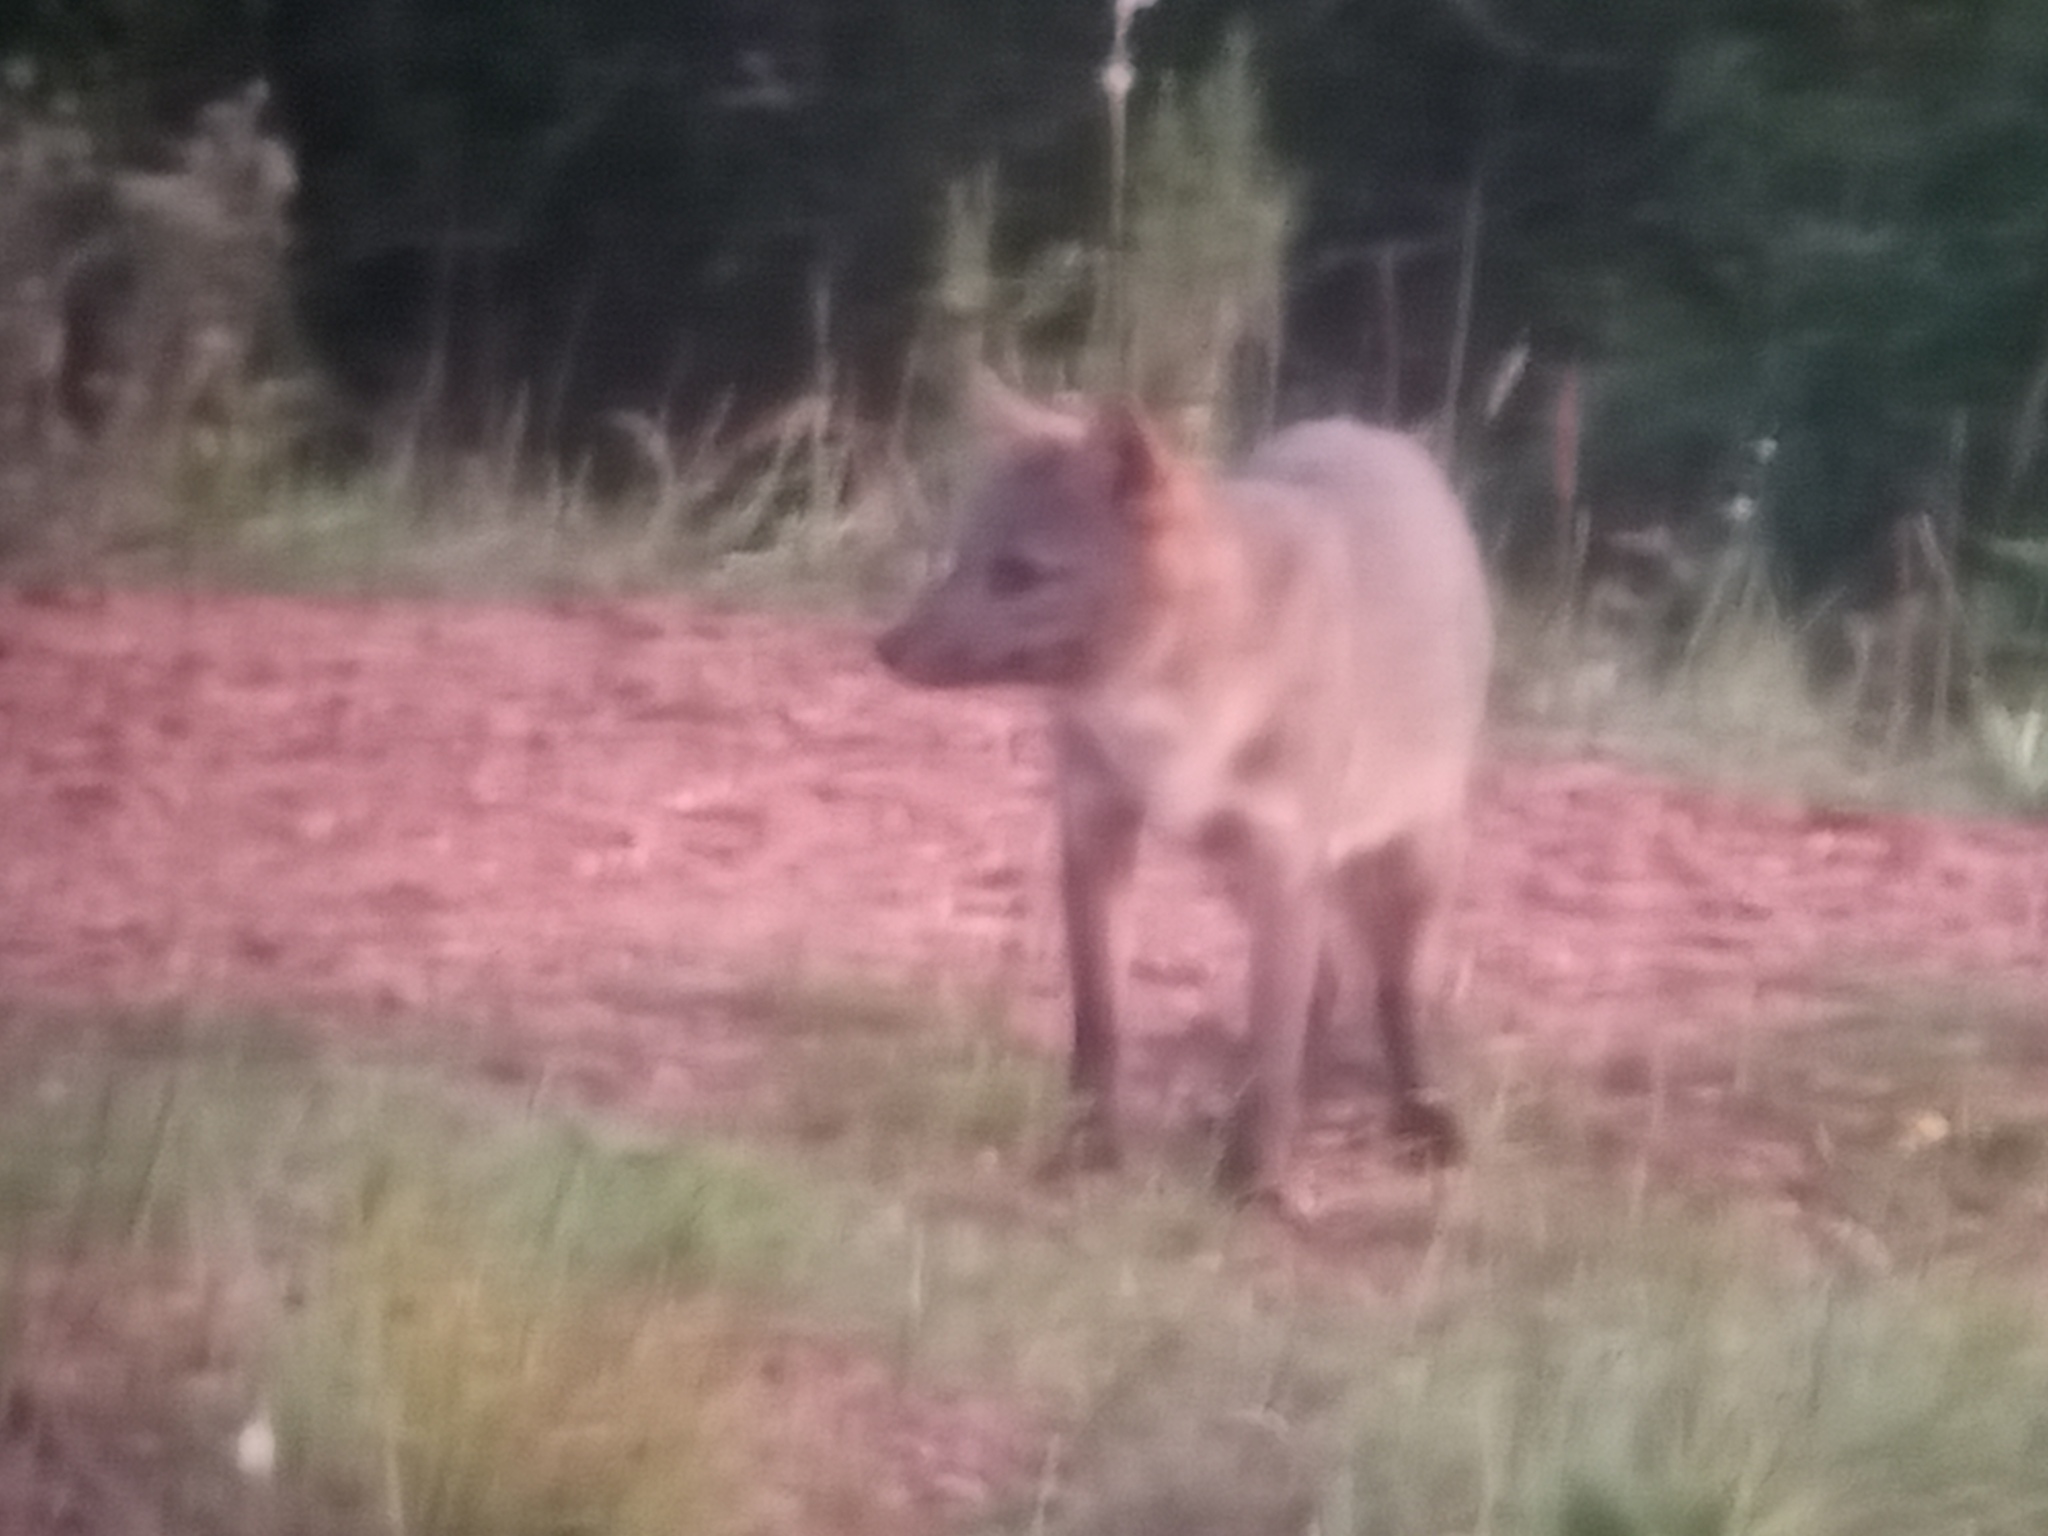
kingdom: Animalia
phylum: Chordata
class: Mammalia
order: Carnivora
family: Canidae
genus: Cerdocyon
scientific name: Cerdocyon thous
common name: Crab-eating fox
